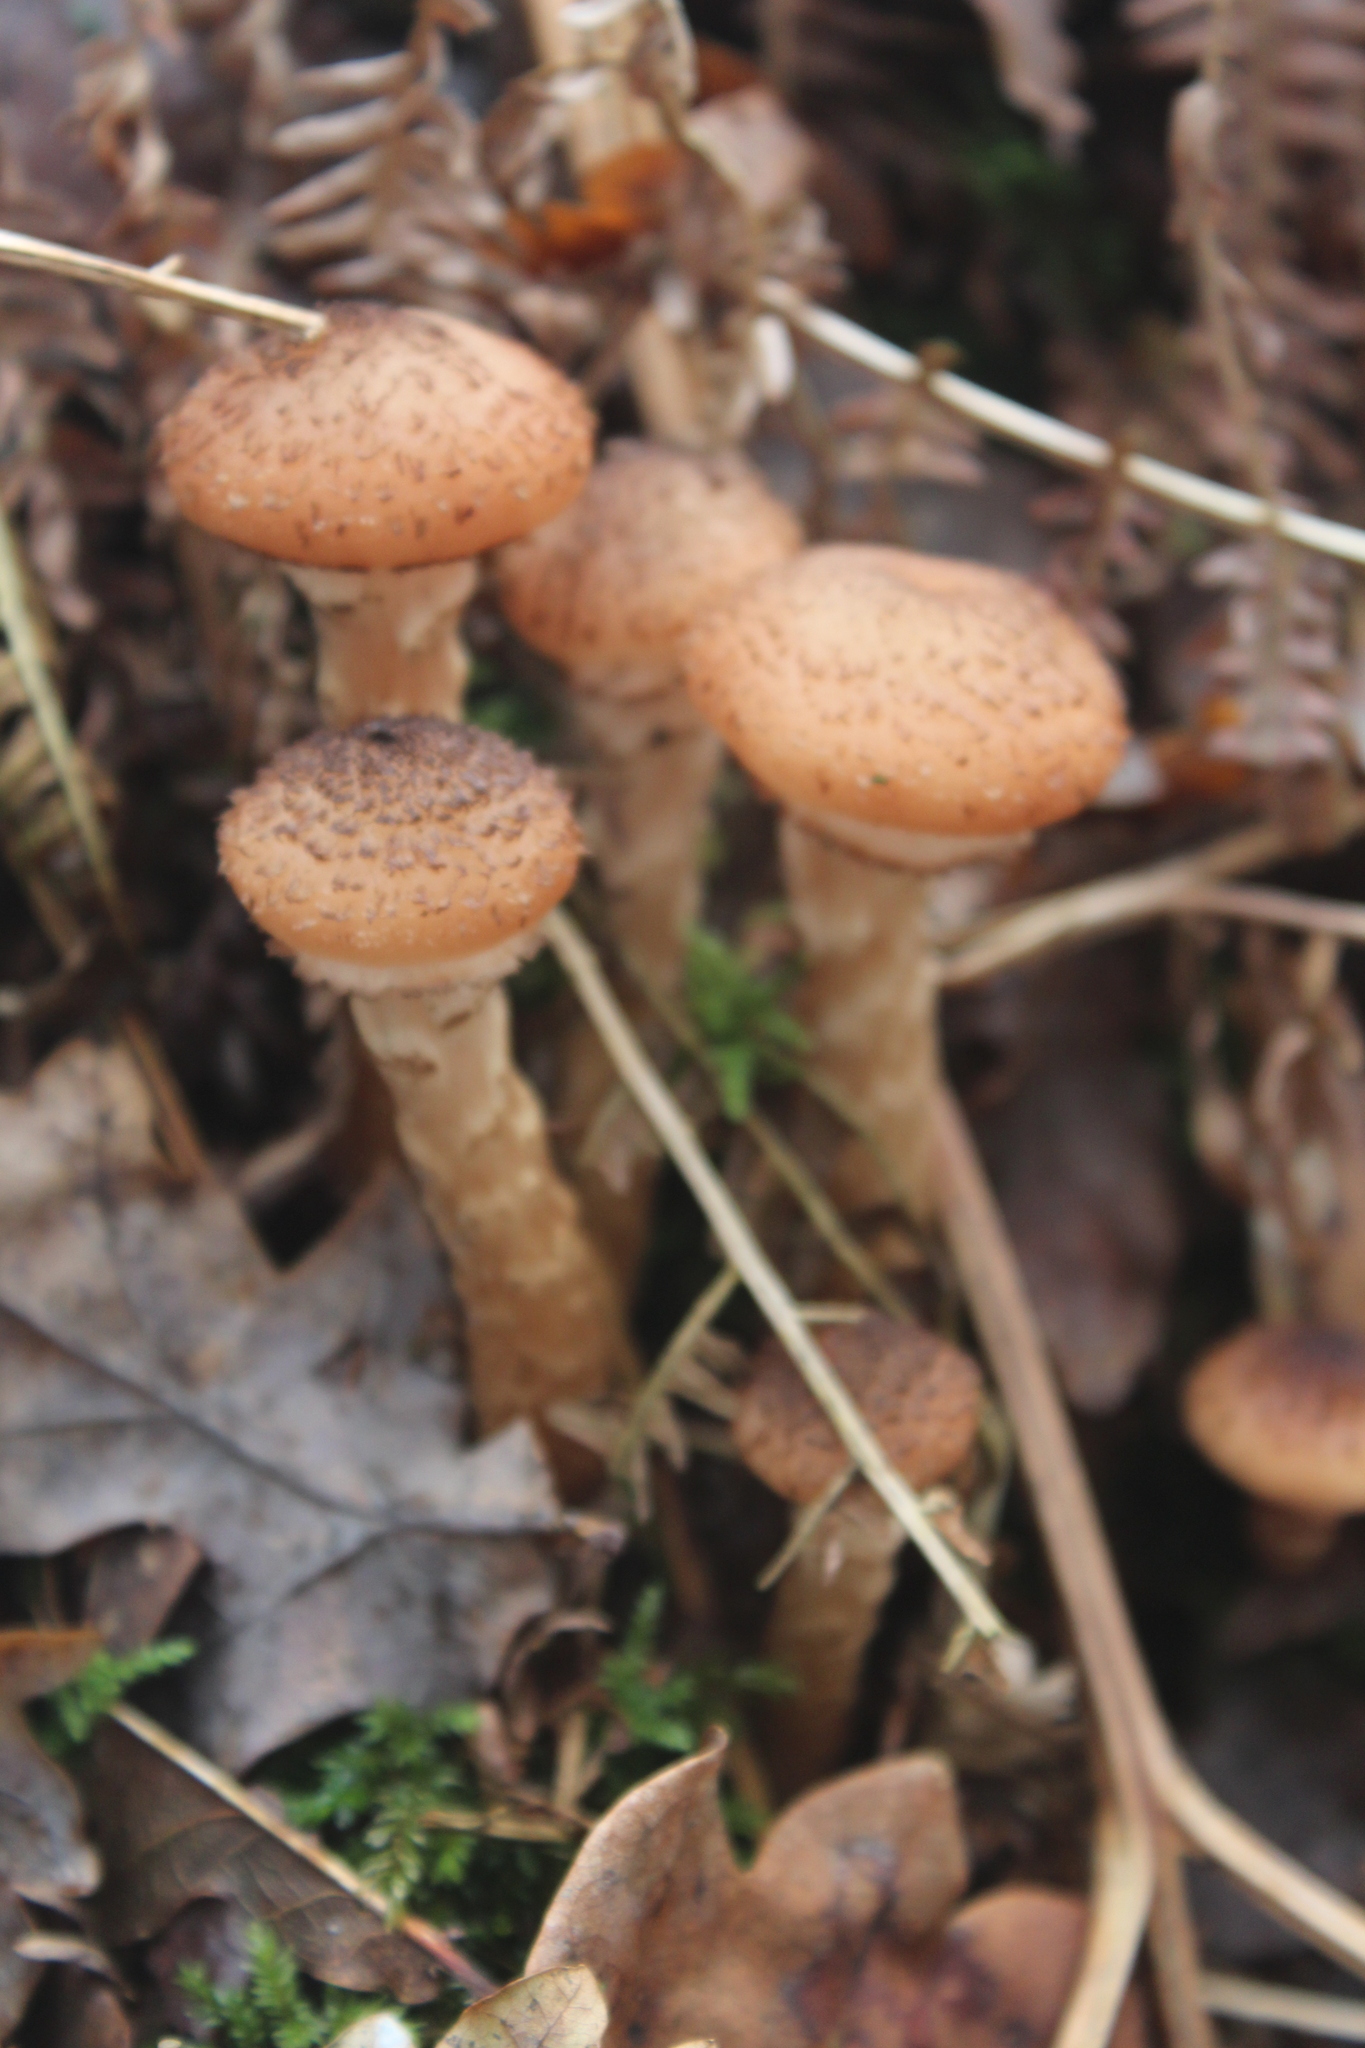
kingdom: Fungi
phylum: Basidiomycota
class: Agaricomycetes
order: Agaricales
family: Physalacriaceae
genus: Armillaria
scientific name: Armillaria ostoyae
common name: Dark honey fungus
